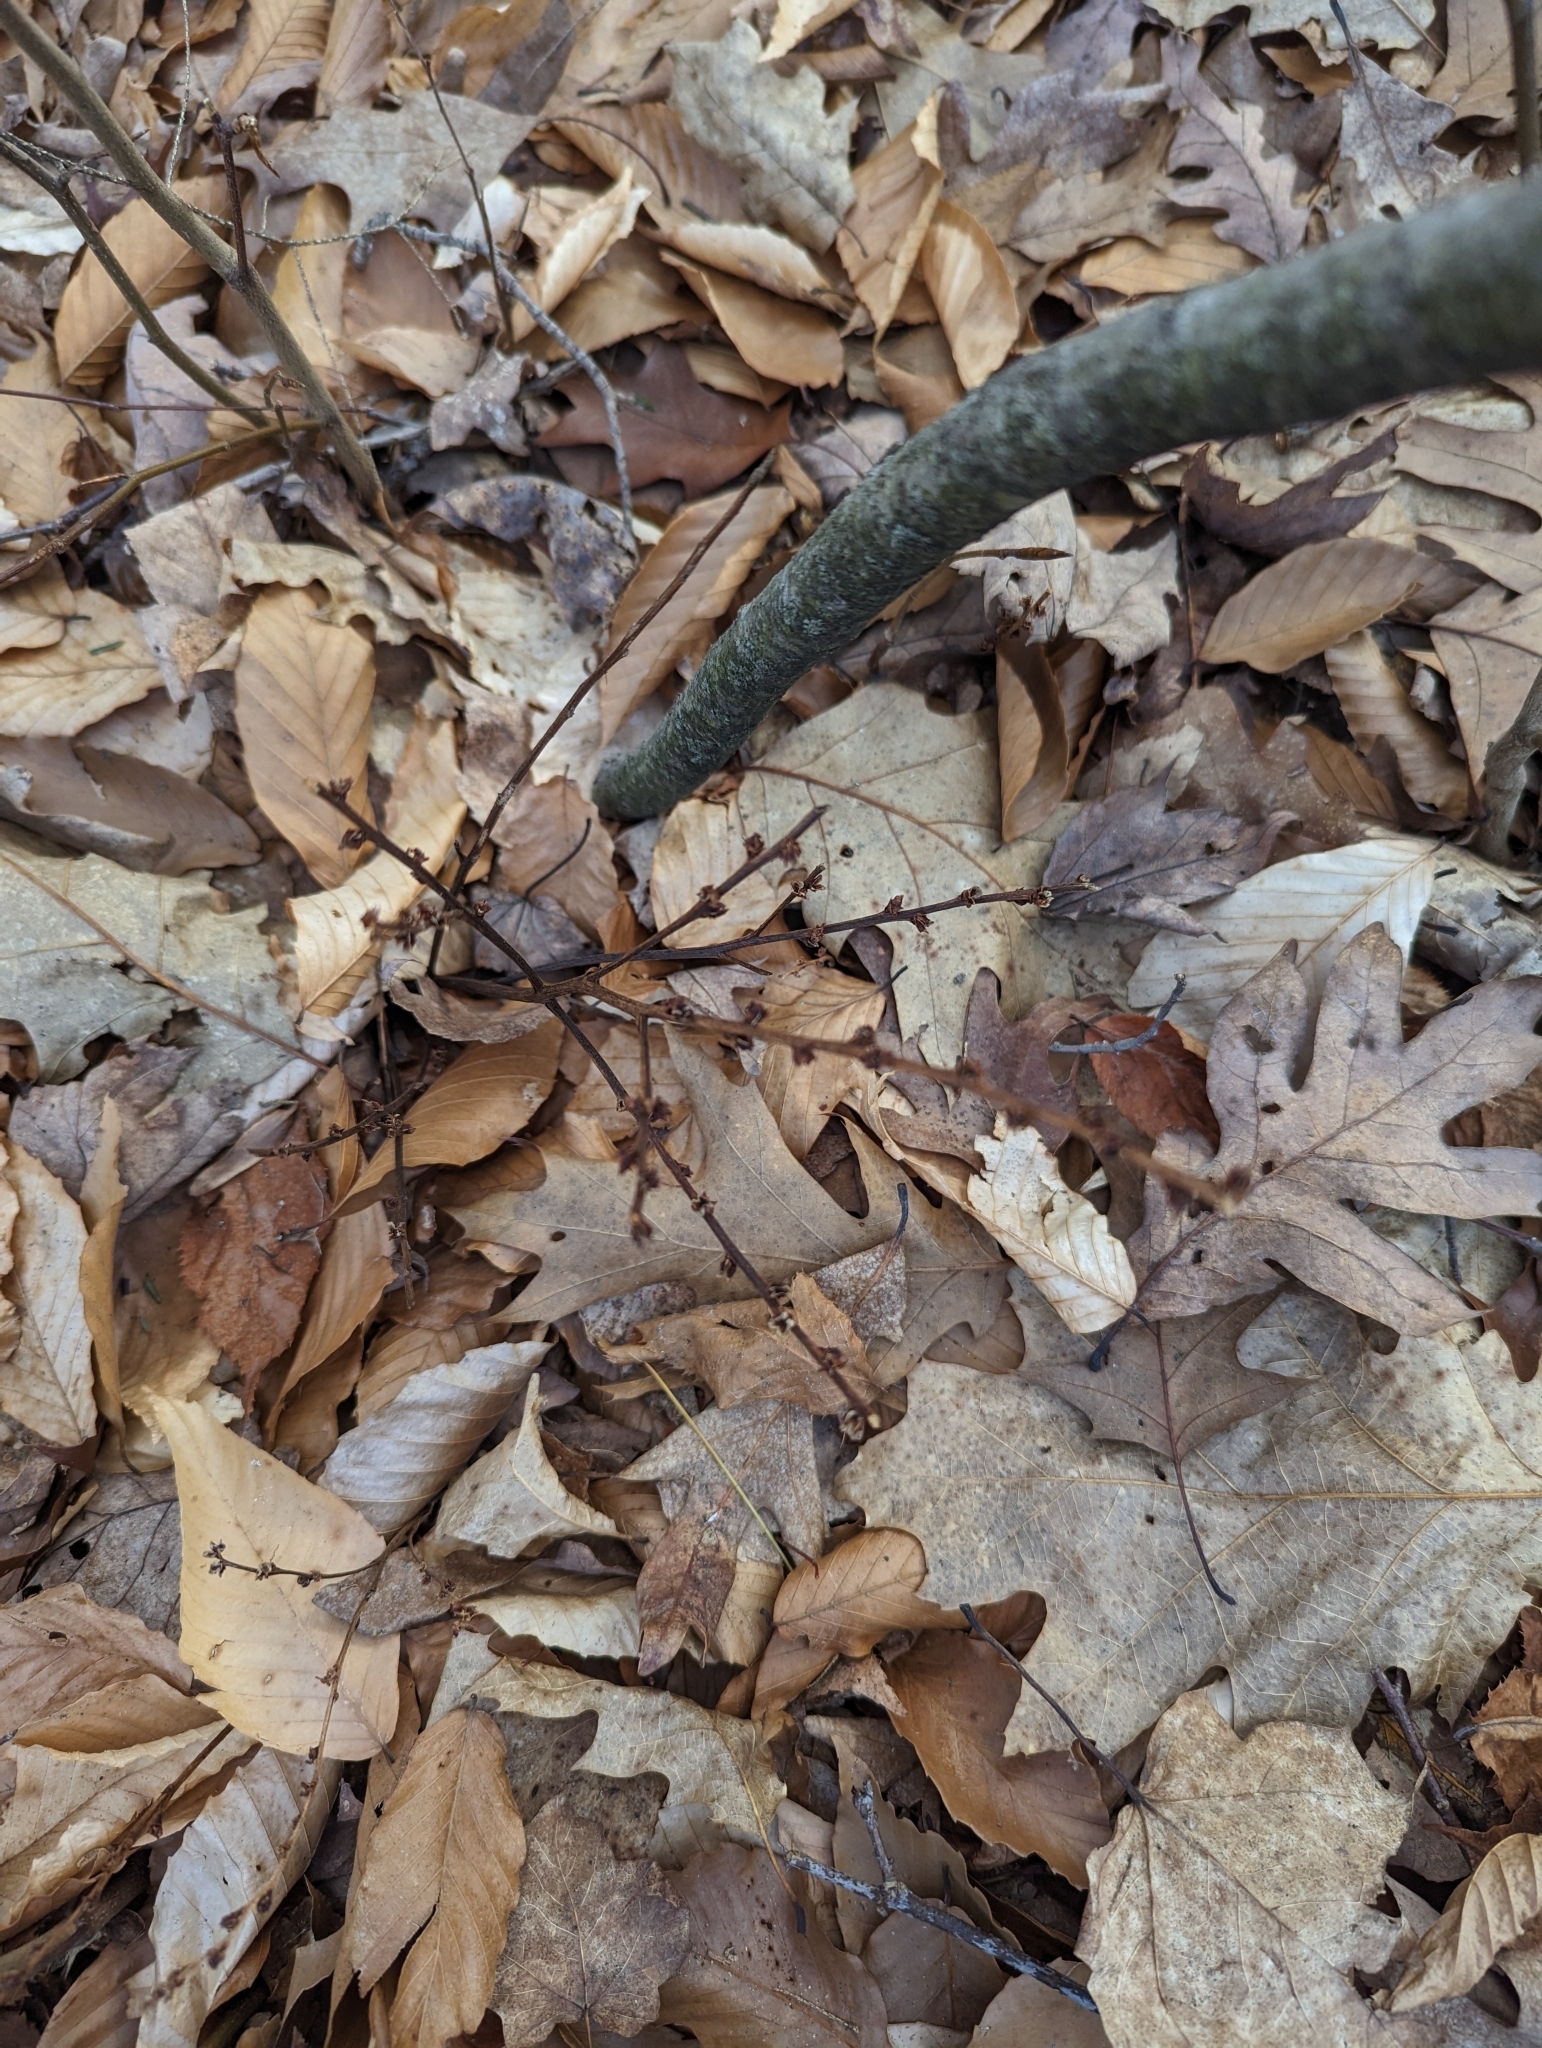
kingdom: Plantae
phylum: Tracheophyta
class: Magnoliopsida
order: Lamiales
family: Orobanchaceae
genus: Epifagus
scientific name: Epifagus virginiana
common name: Beechdrops
